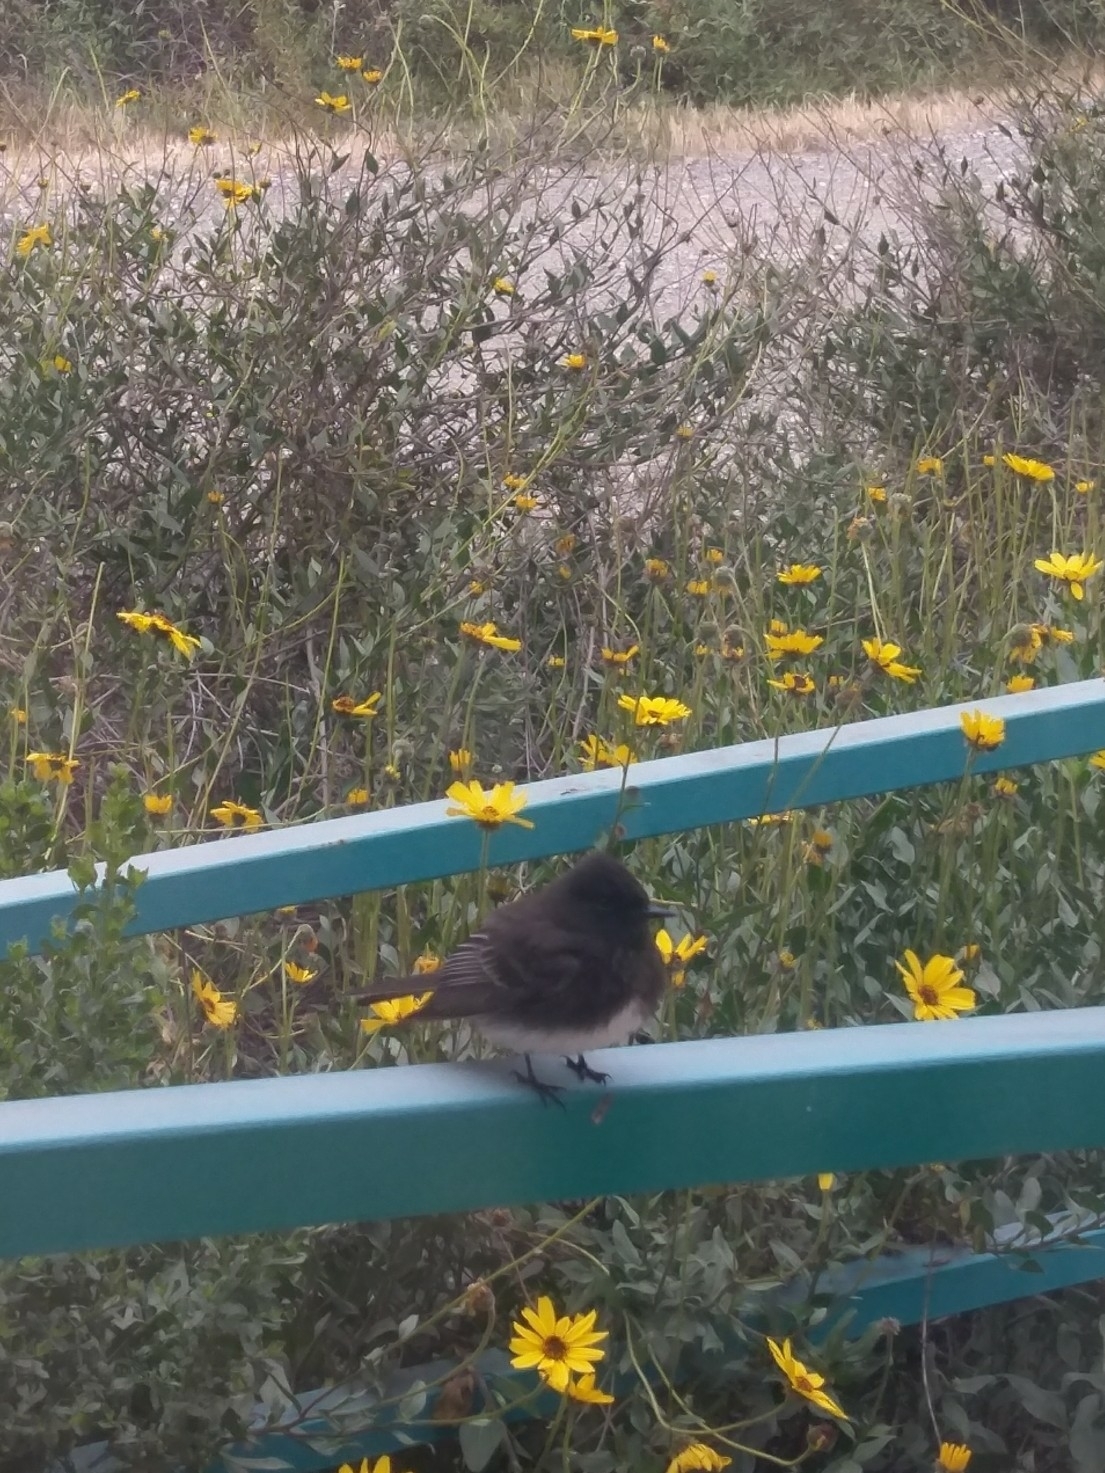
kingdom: Animalia
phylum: Chordata
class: Aves
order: Passeriformes
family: Tyrannidae
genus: Sayornis
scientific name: Sayornis nigricans
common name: Black phoebe
